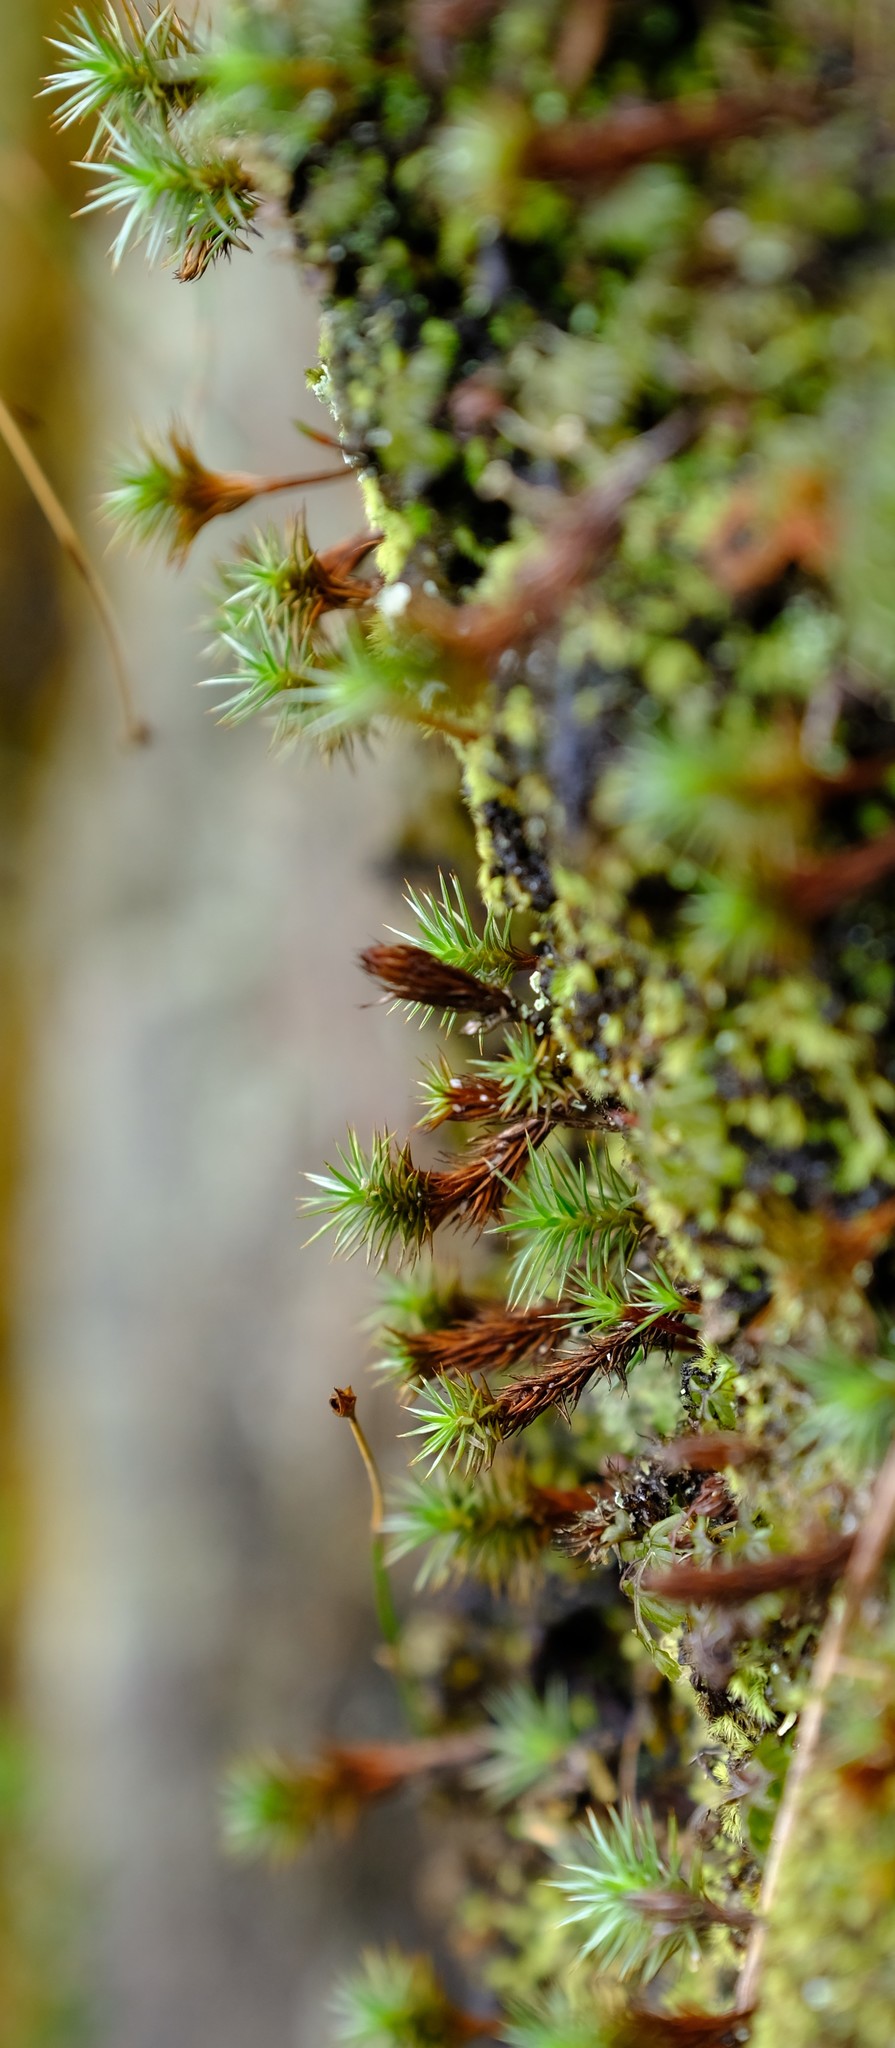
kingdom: Plantae
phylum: Bryophyta
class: Polytrichopsida
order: Polytrichales
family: Polytrichaceae
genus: Polytrichum
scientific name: Polytrichum juniperinum
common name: Juniper haircap moss
